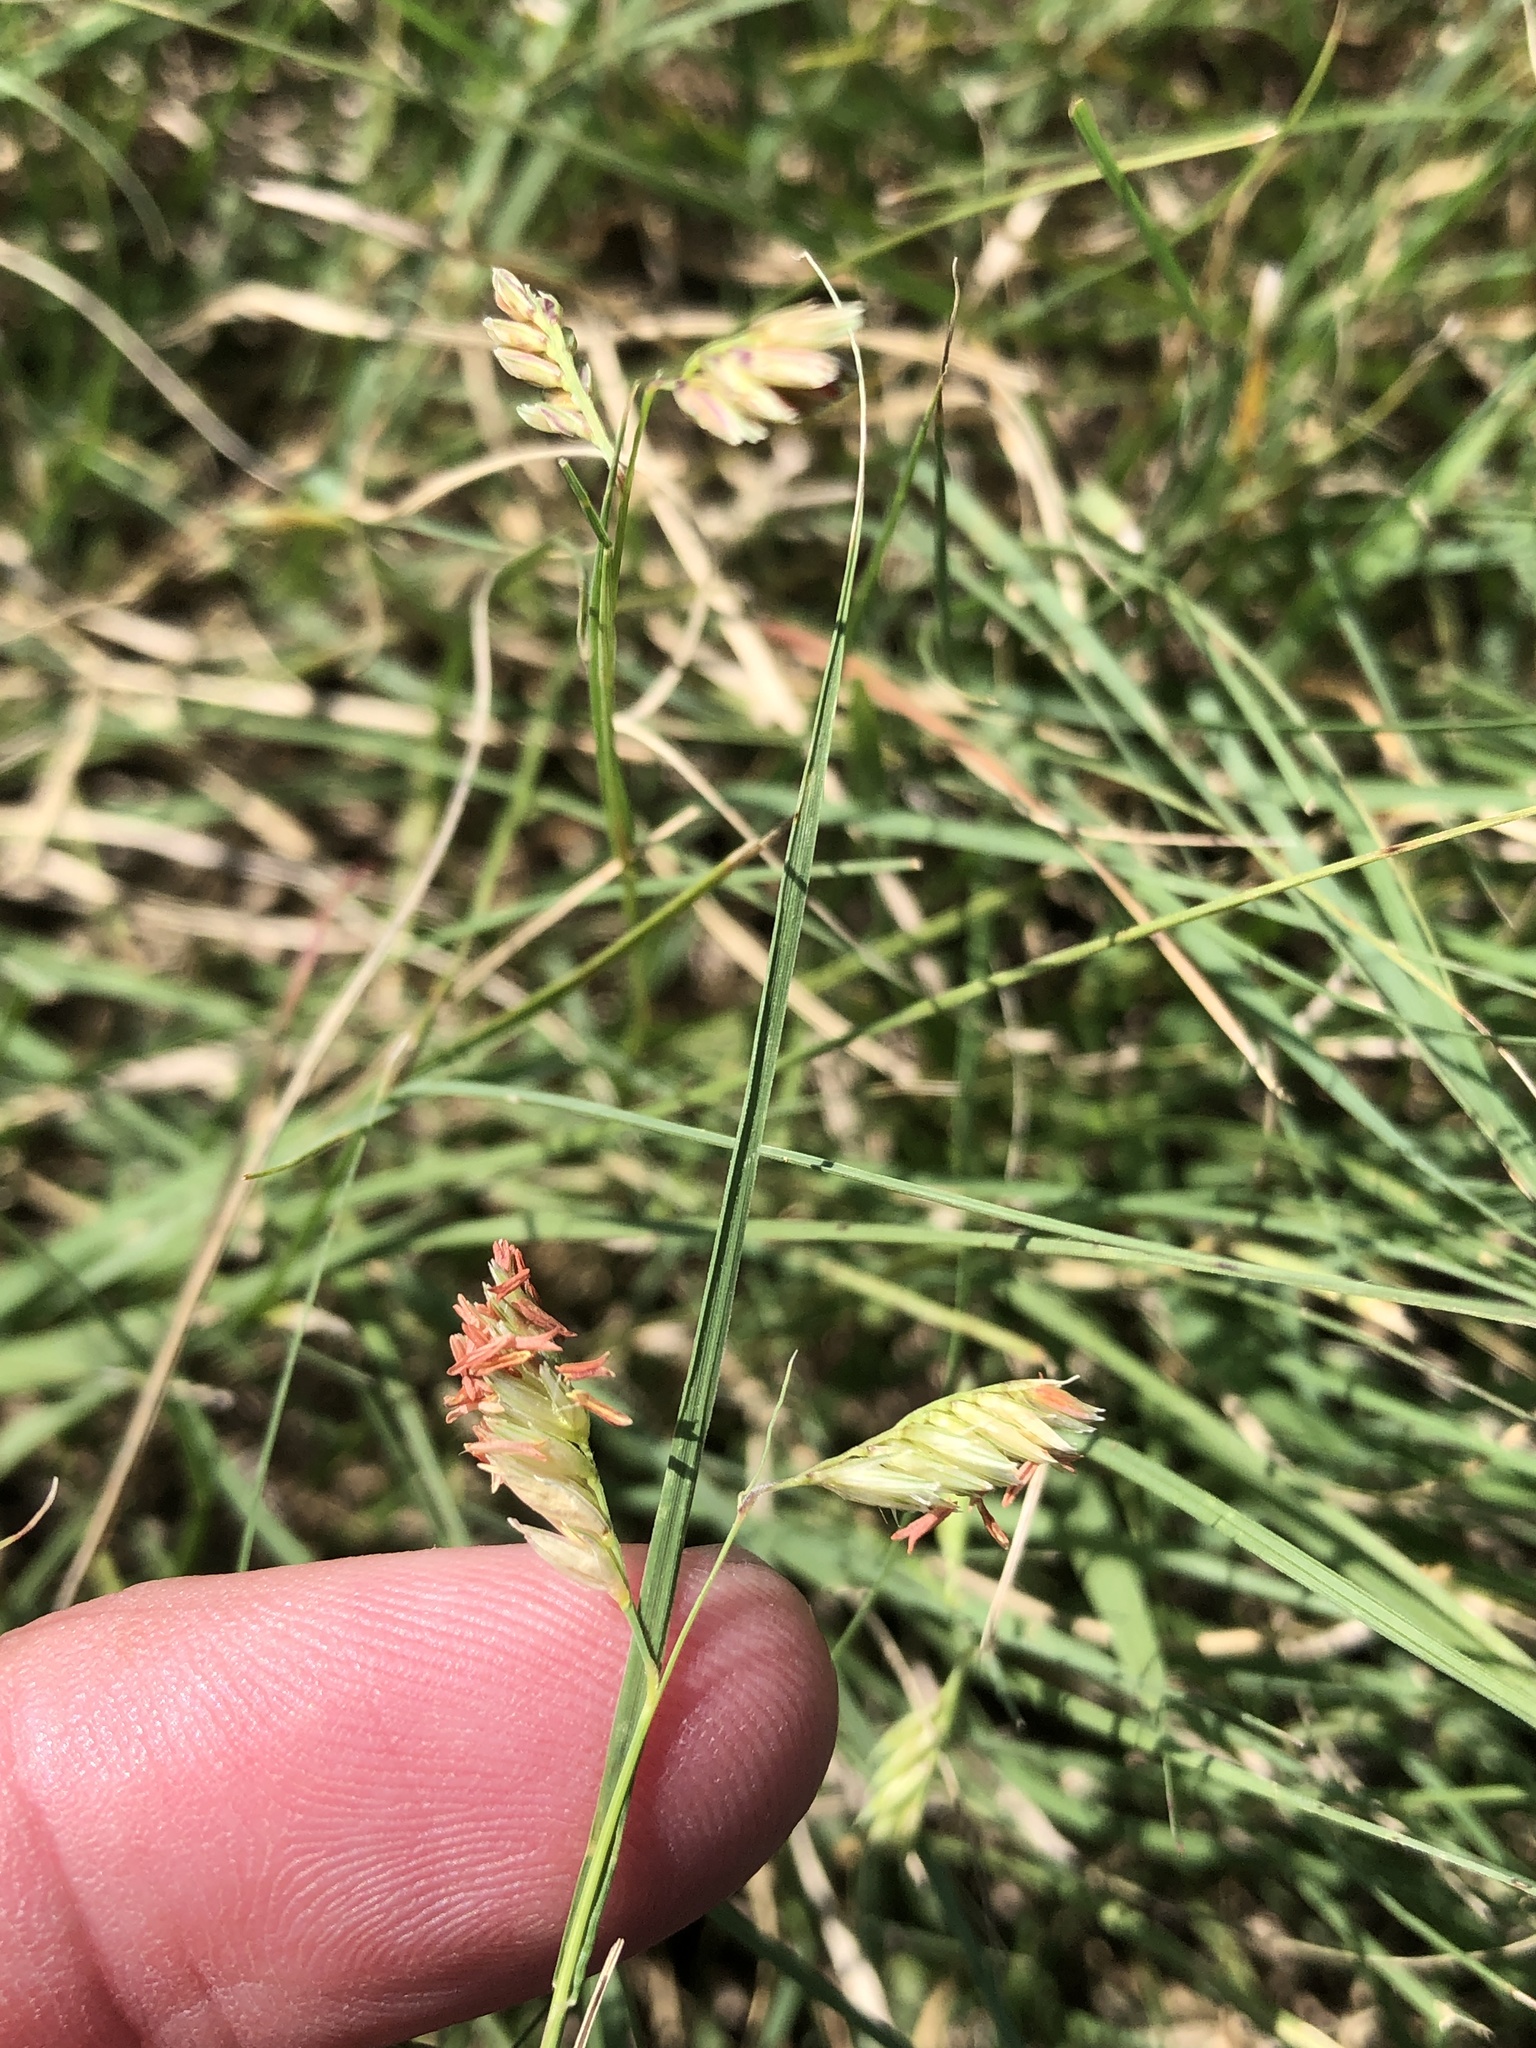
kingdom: Plantae
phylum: Tracheophyta
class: Liliopsida
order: Poales
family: Poaceae
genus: Bouteloua
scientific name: Bouteloua dactyloides
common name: Buffalo grass
